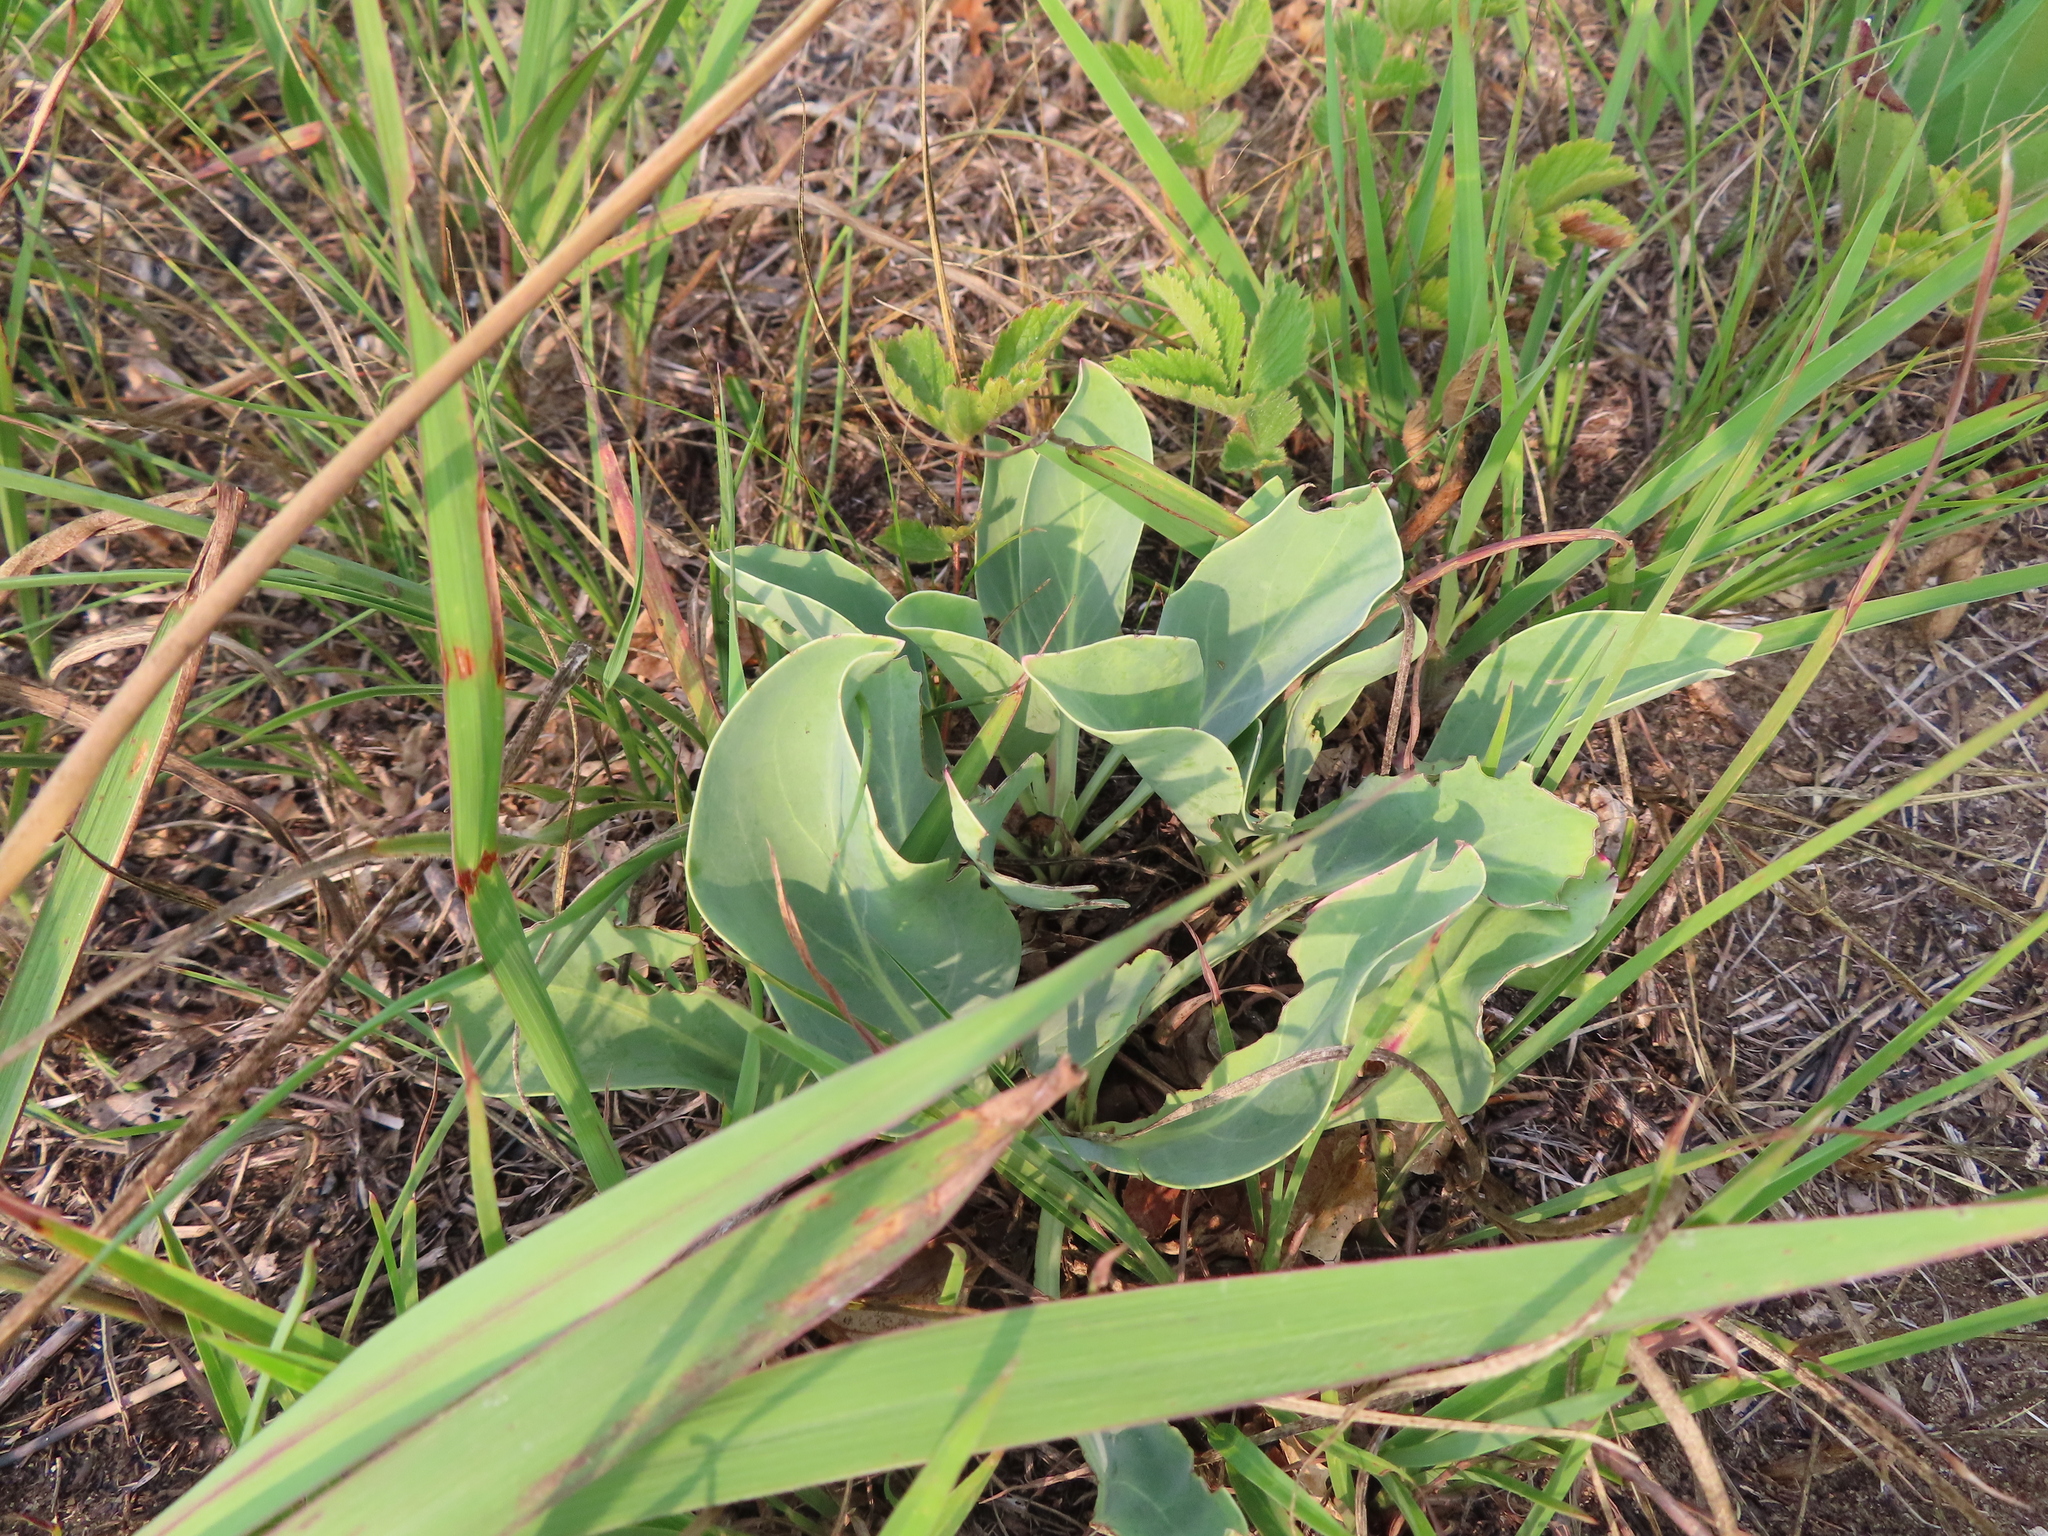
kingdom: Plantae
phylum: Tracheophyta
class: Magnoliopsida
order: Lamiales
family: Plantaginaceae
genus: Penstemon
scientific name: Penstemon
